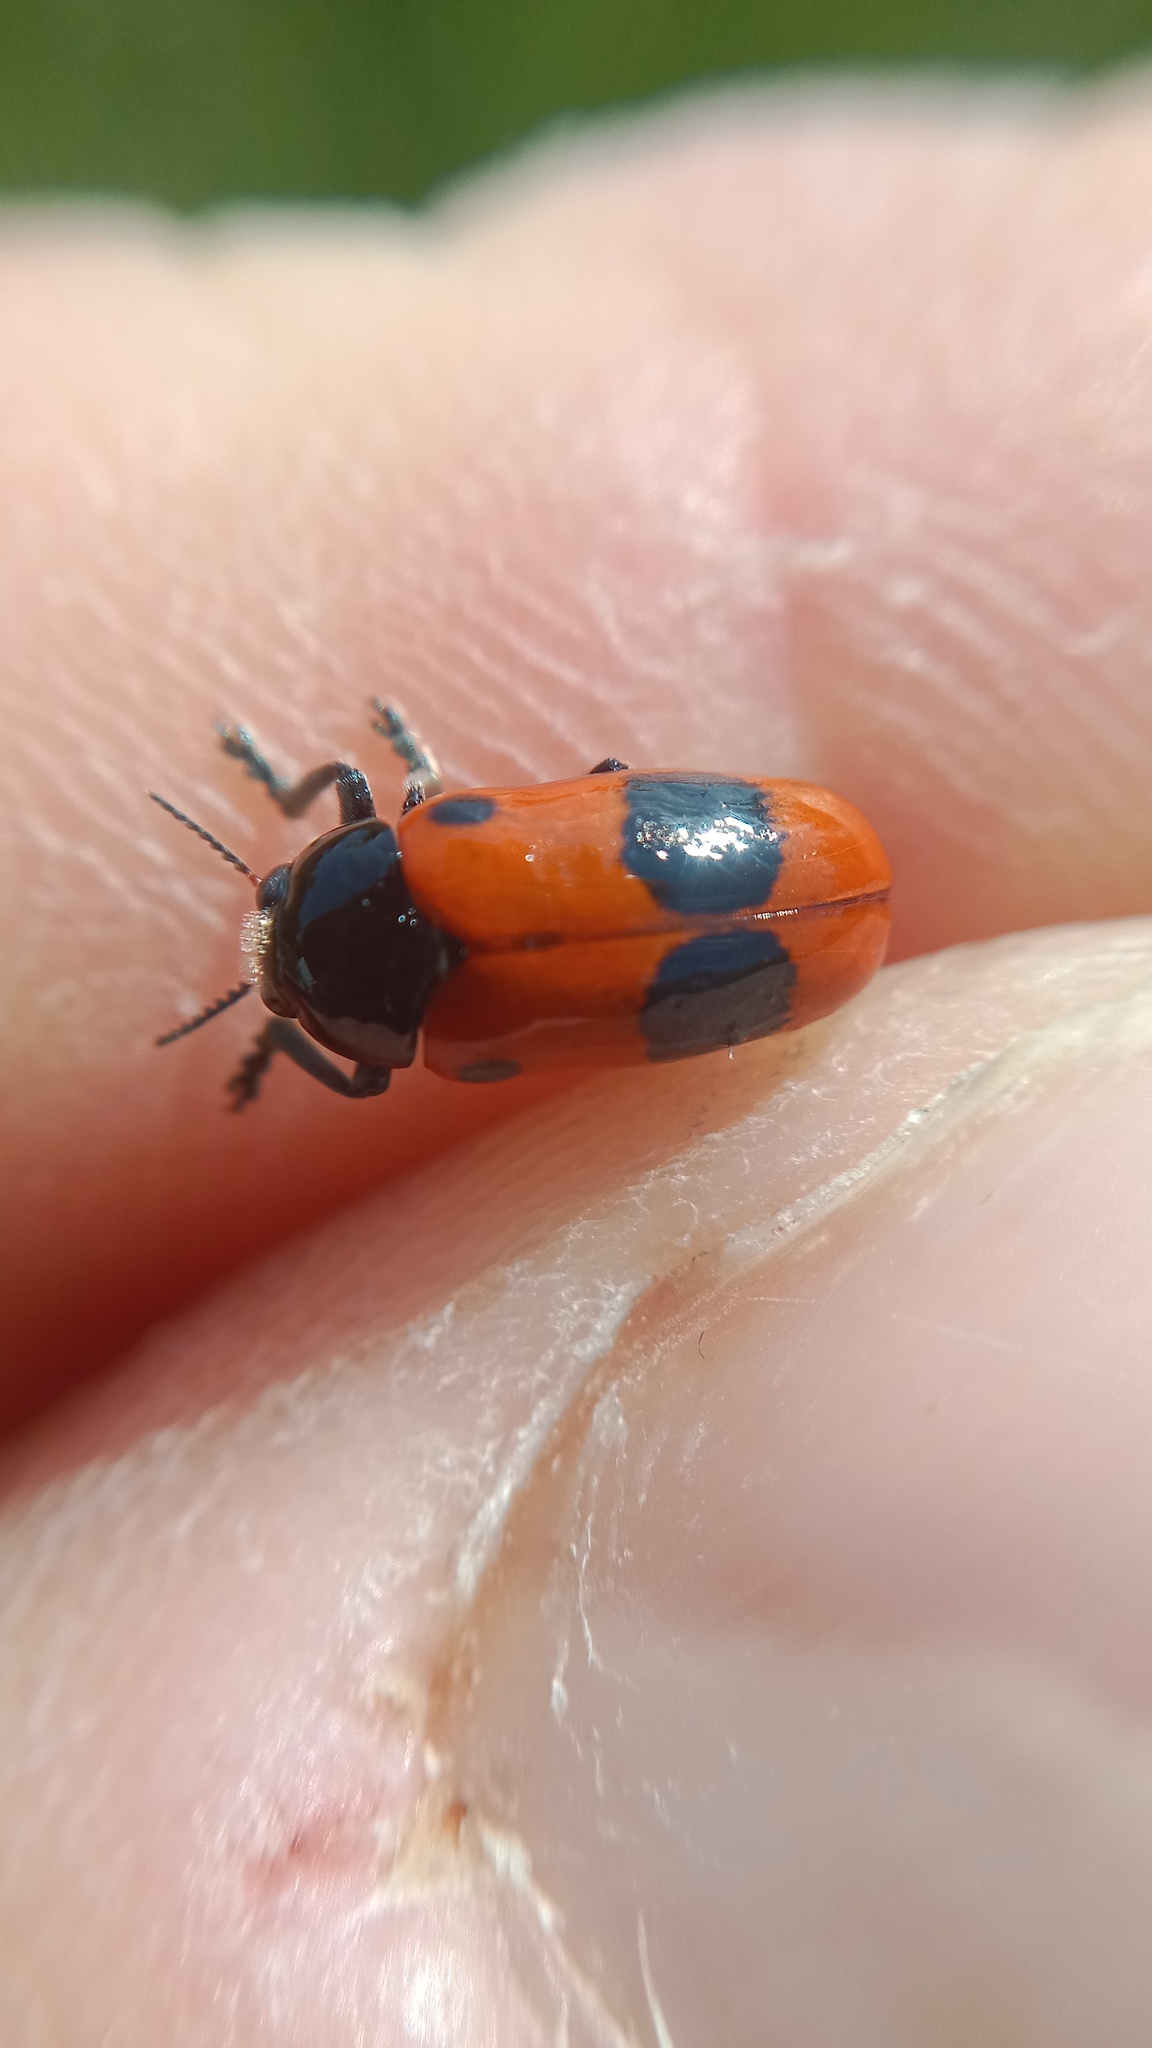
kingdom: Animalia
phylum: Arthropoda
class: Insecta
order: Coleoptera
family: Chrysomelidae
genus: Clytra
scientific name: Clytra laeviuscula
